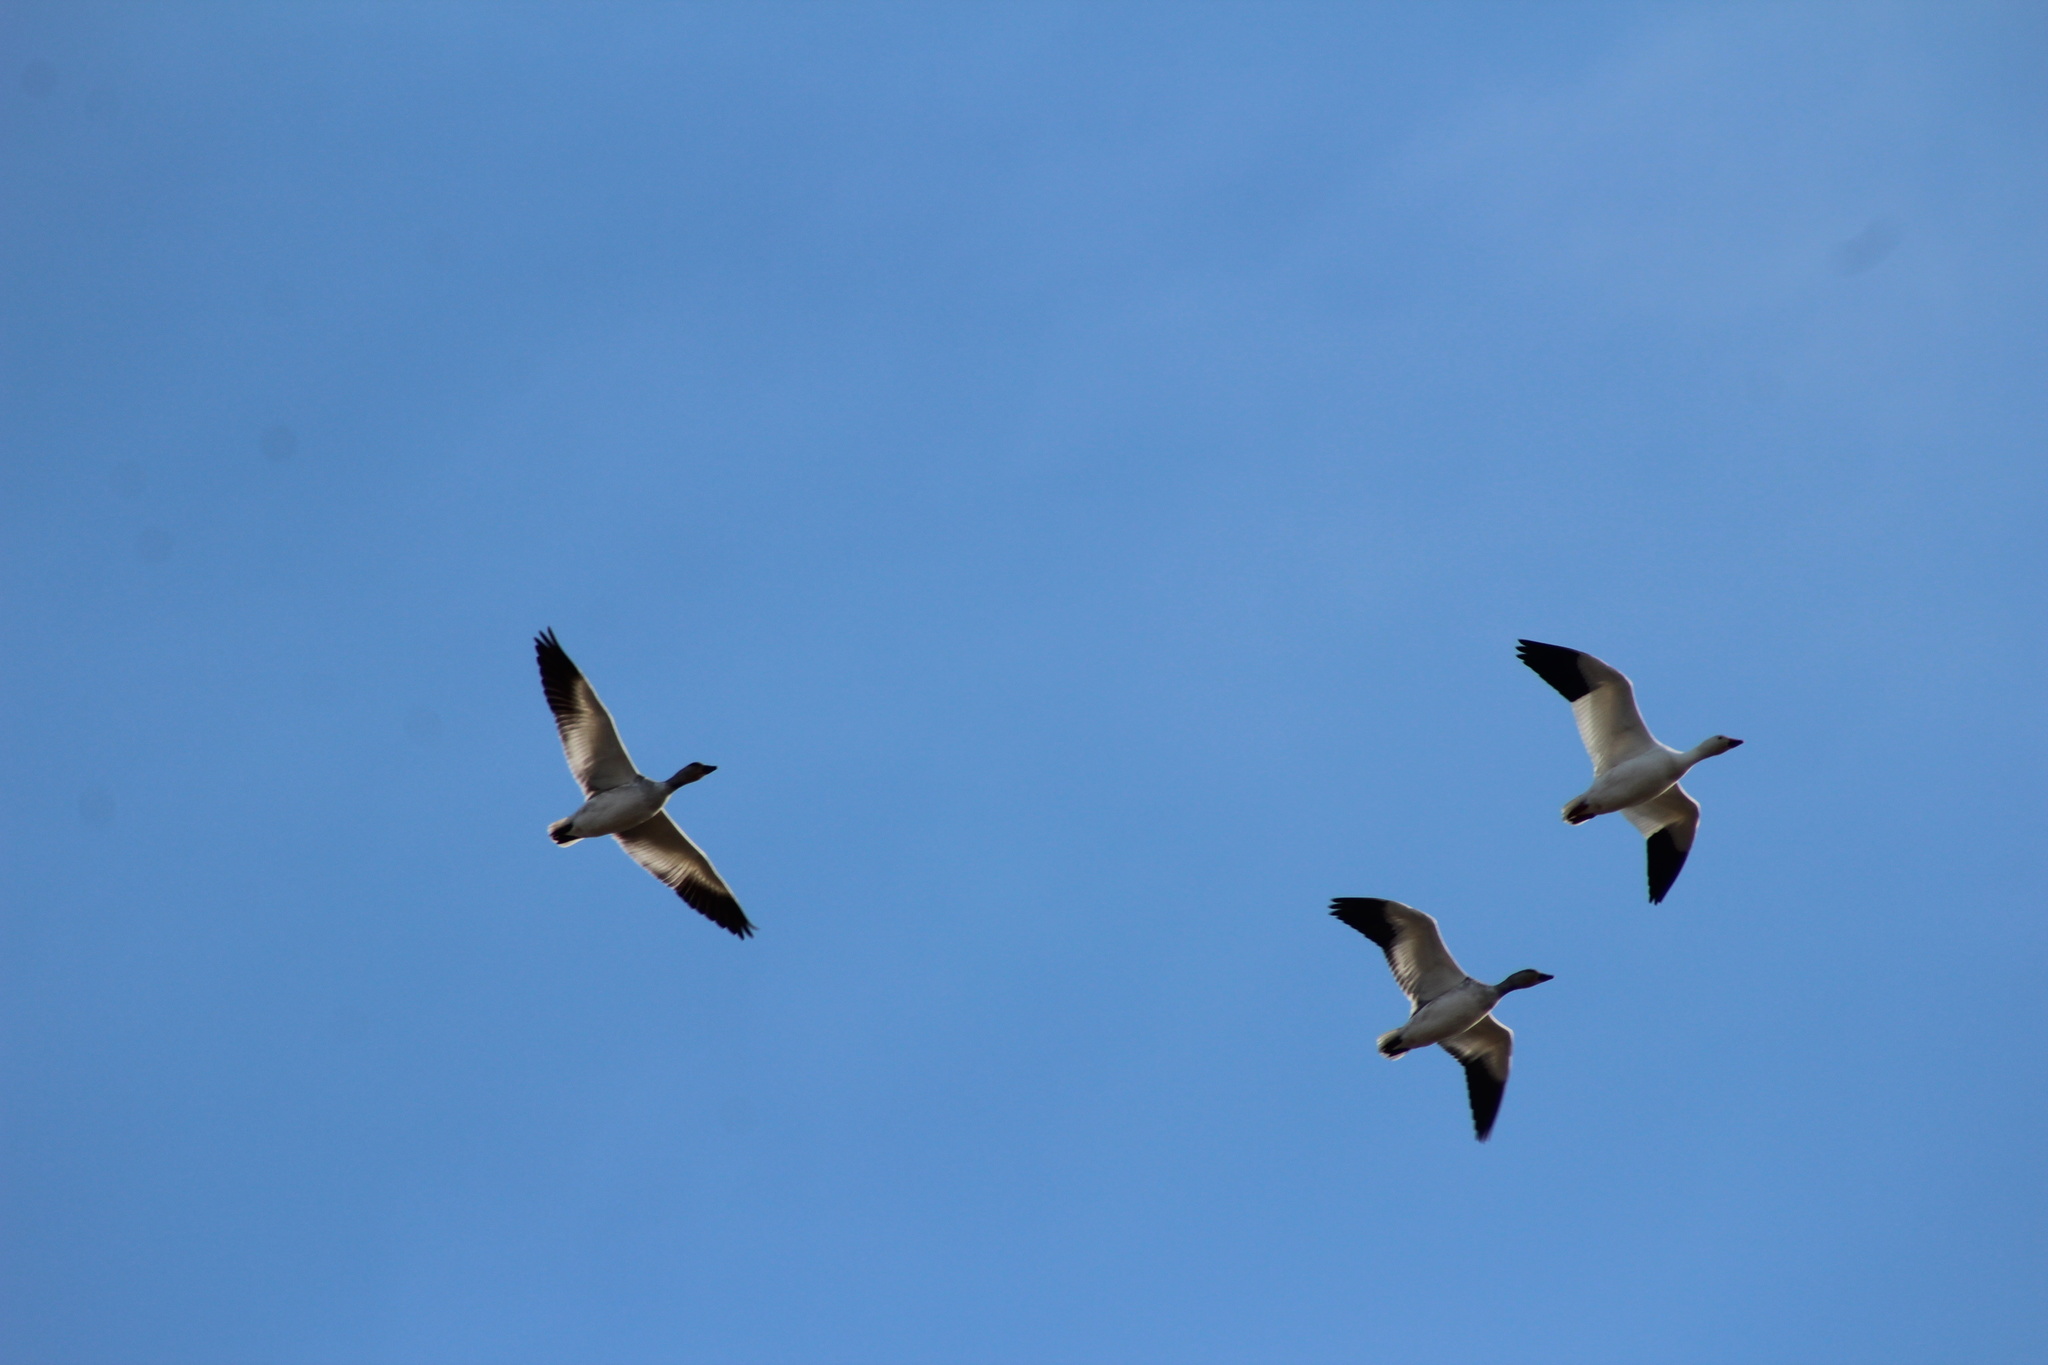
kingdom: Animalia
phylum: Chordata
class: Aves
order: Anseriformes
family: Anatidae
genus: Anser
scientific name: Anser caerulescens
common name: Snow goose
